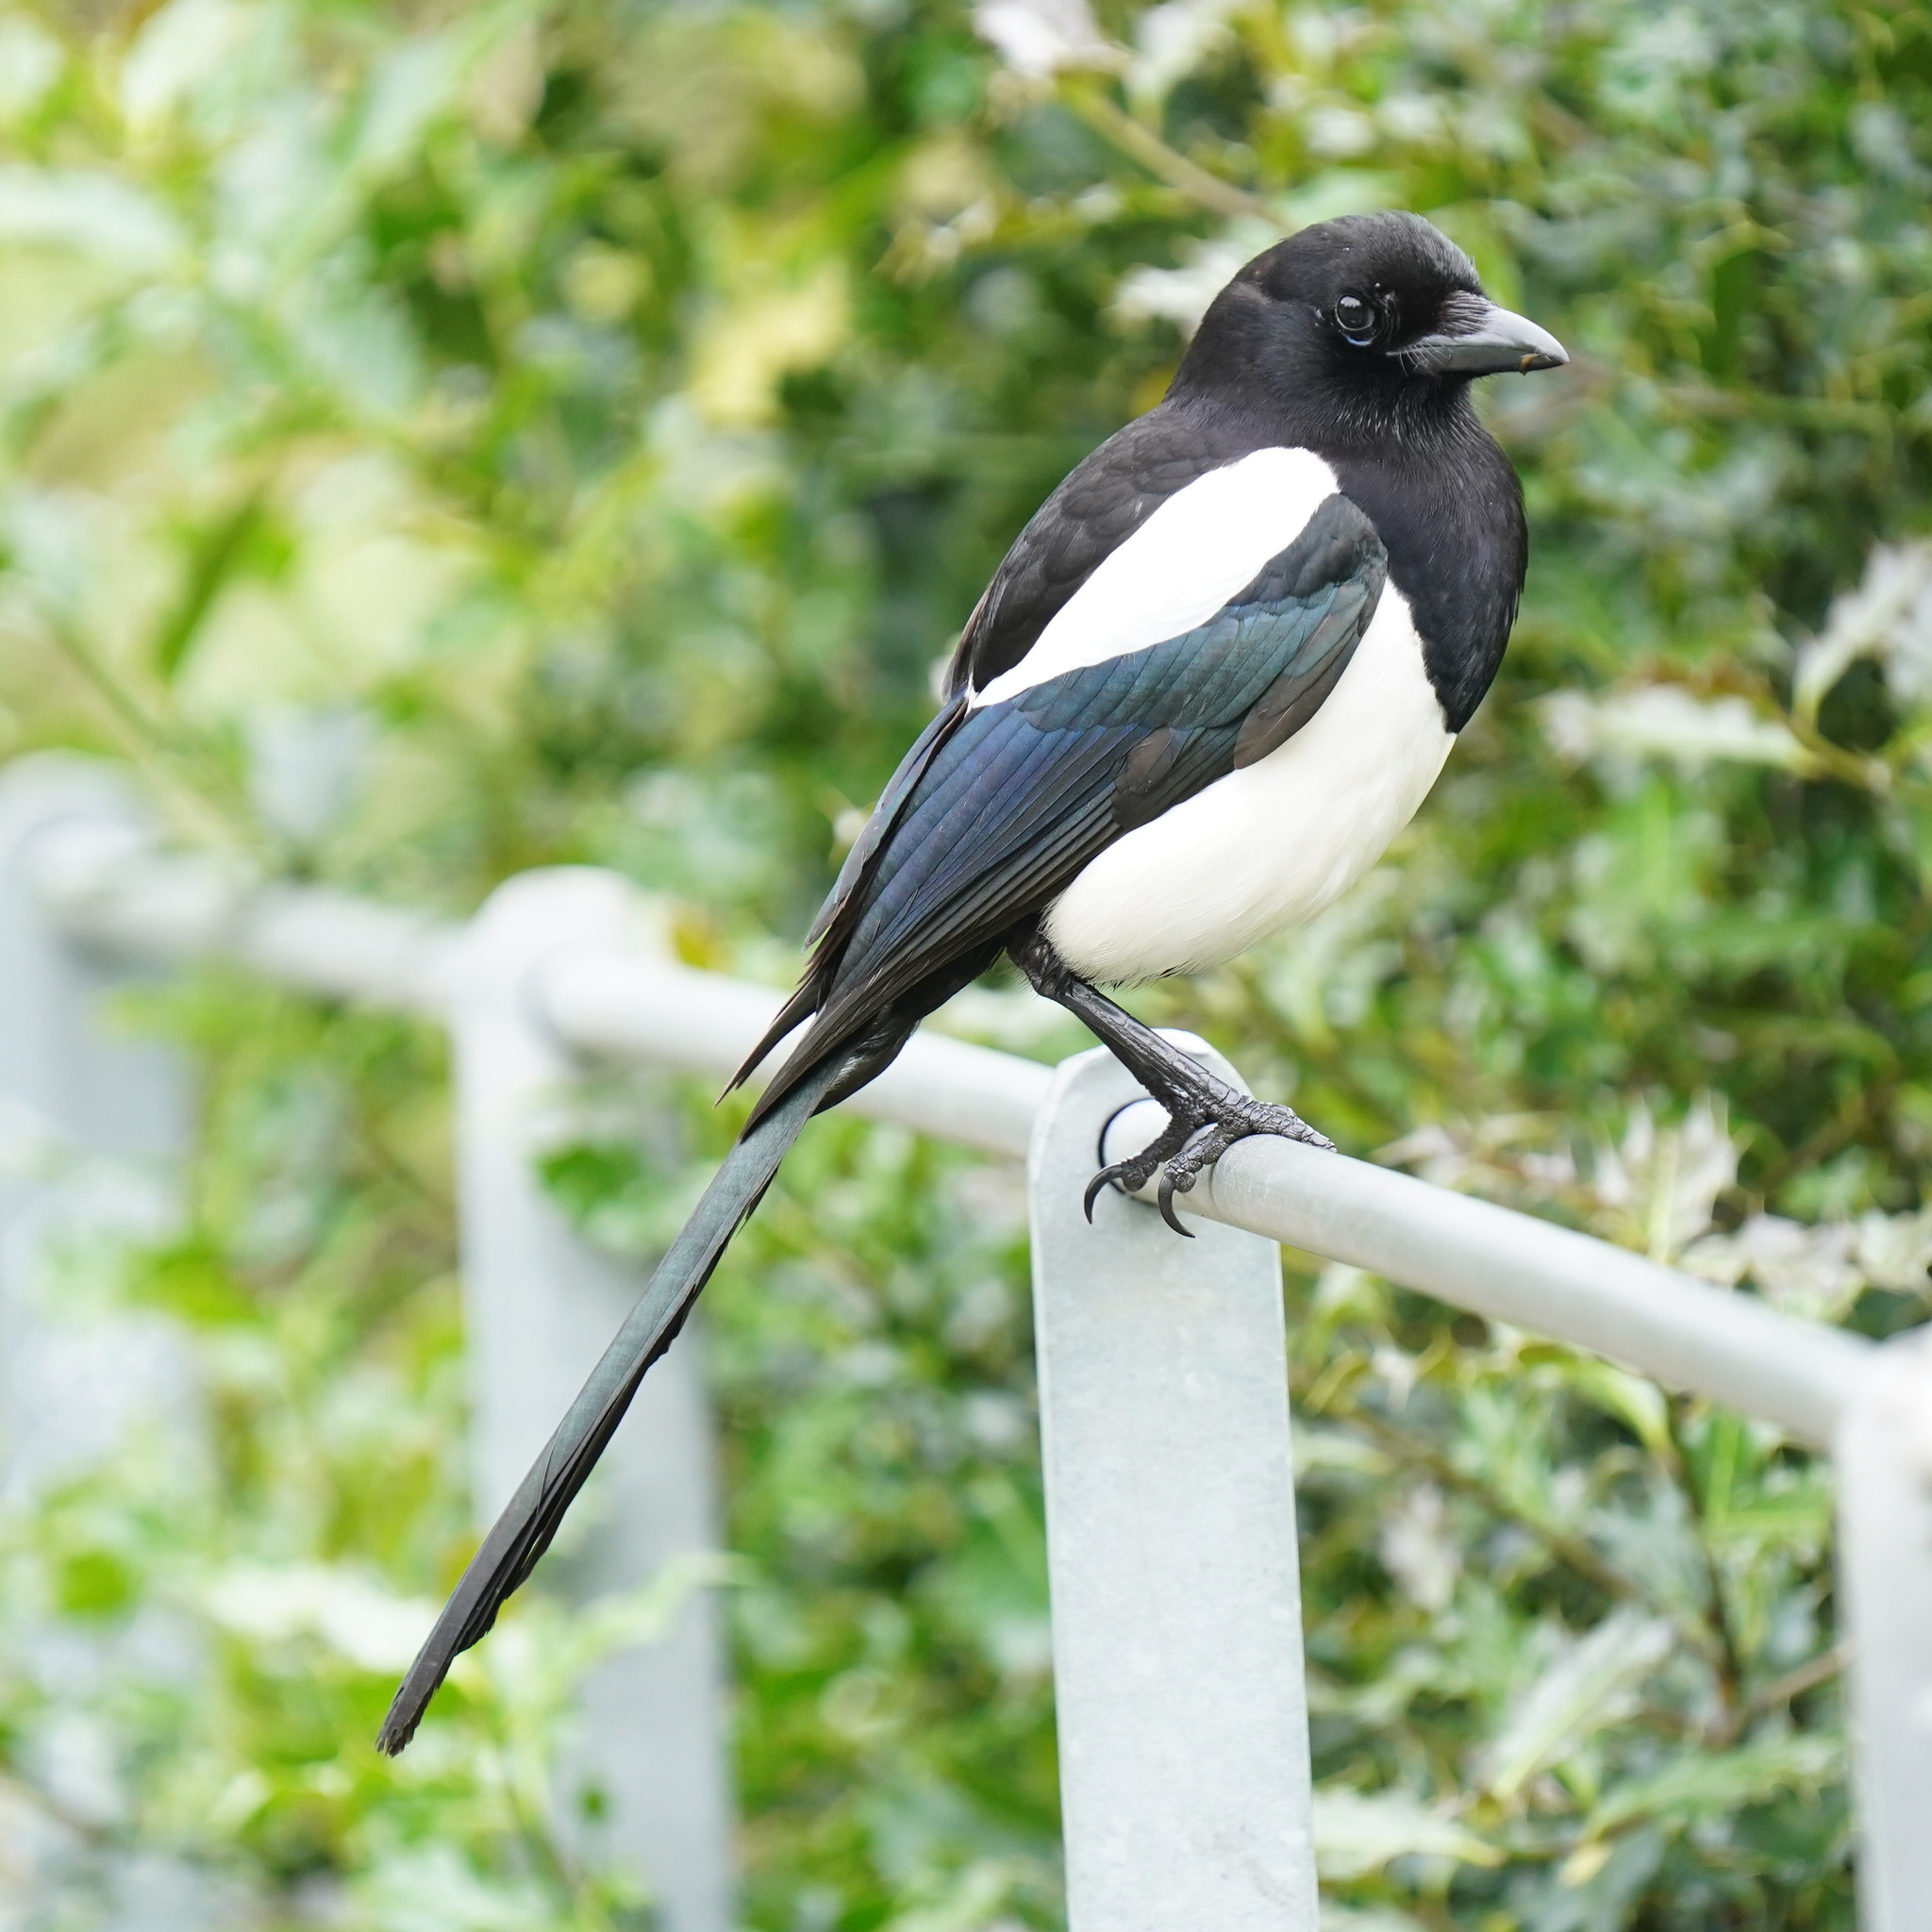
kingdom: Animalia
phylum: Chordata
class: Aves
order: Passeriformes
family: Corvidae
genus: Pica
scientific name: Pica pica
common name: Eurasian magpie
